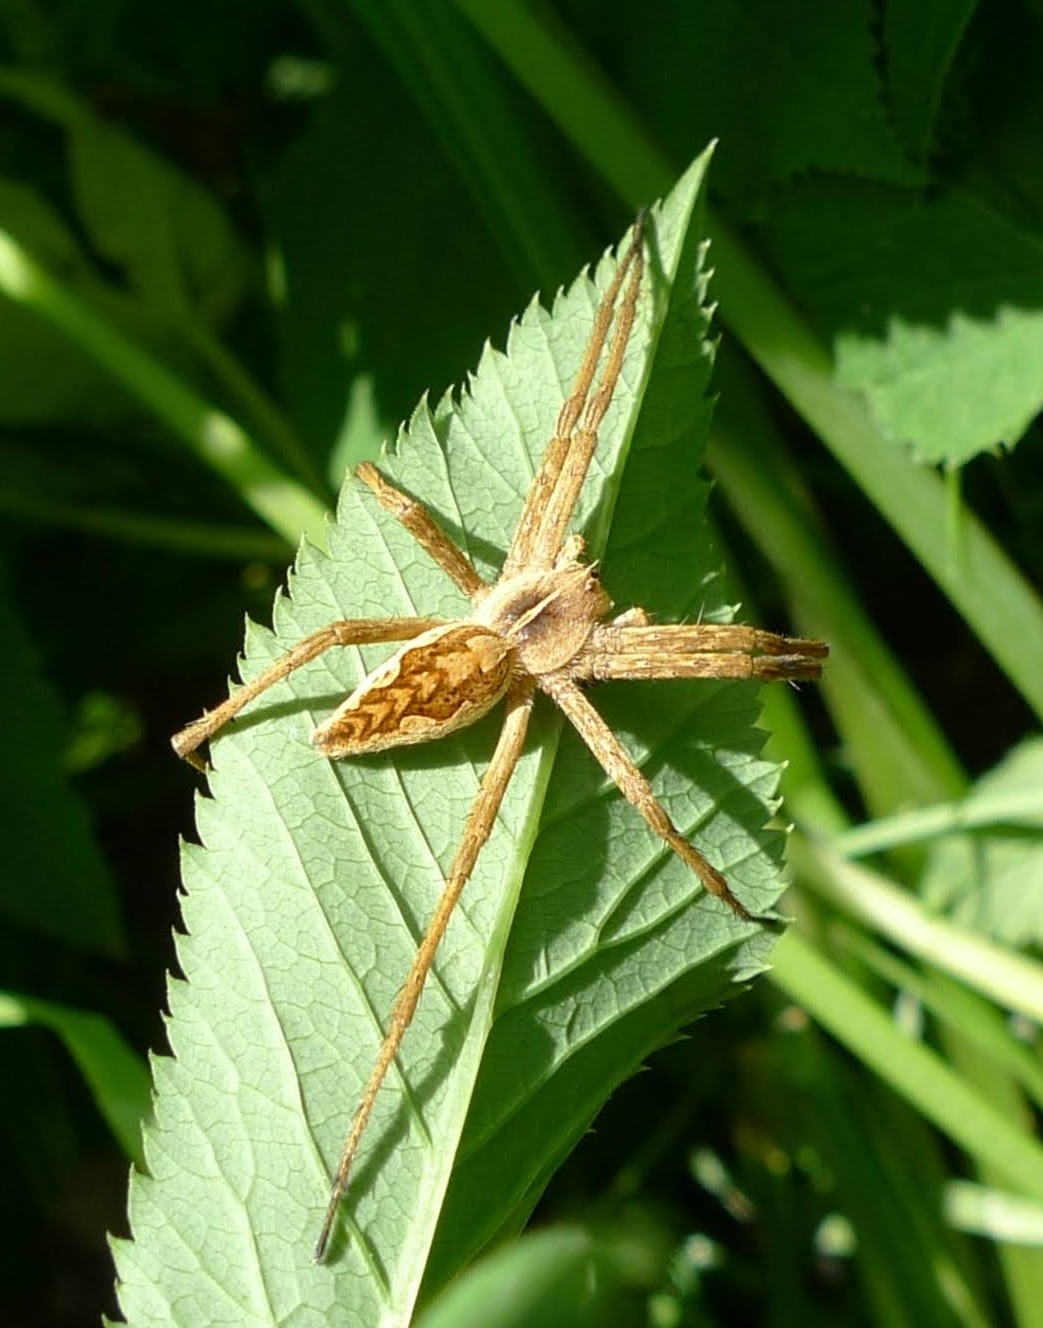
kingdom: Animalia
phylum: Arthropoda
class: Arachnida
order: Araneae
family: Pisauridae
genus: Pisaura
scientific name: Pisaura mirabilis
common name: Tent spider
